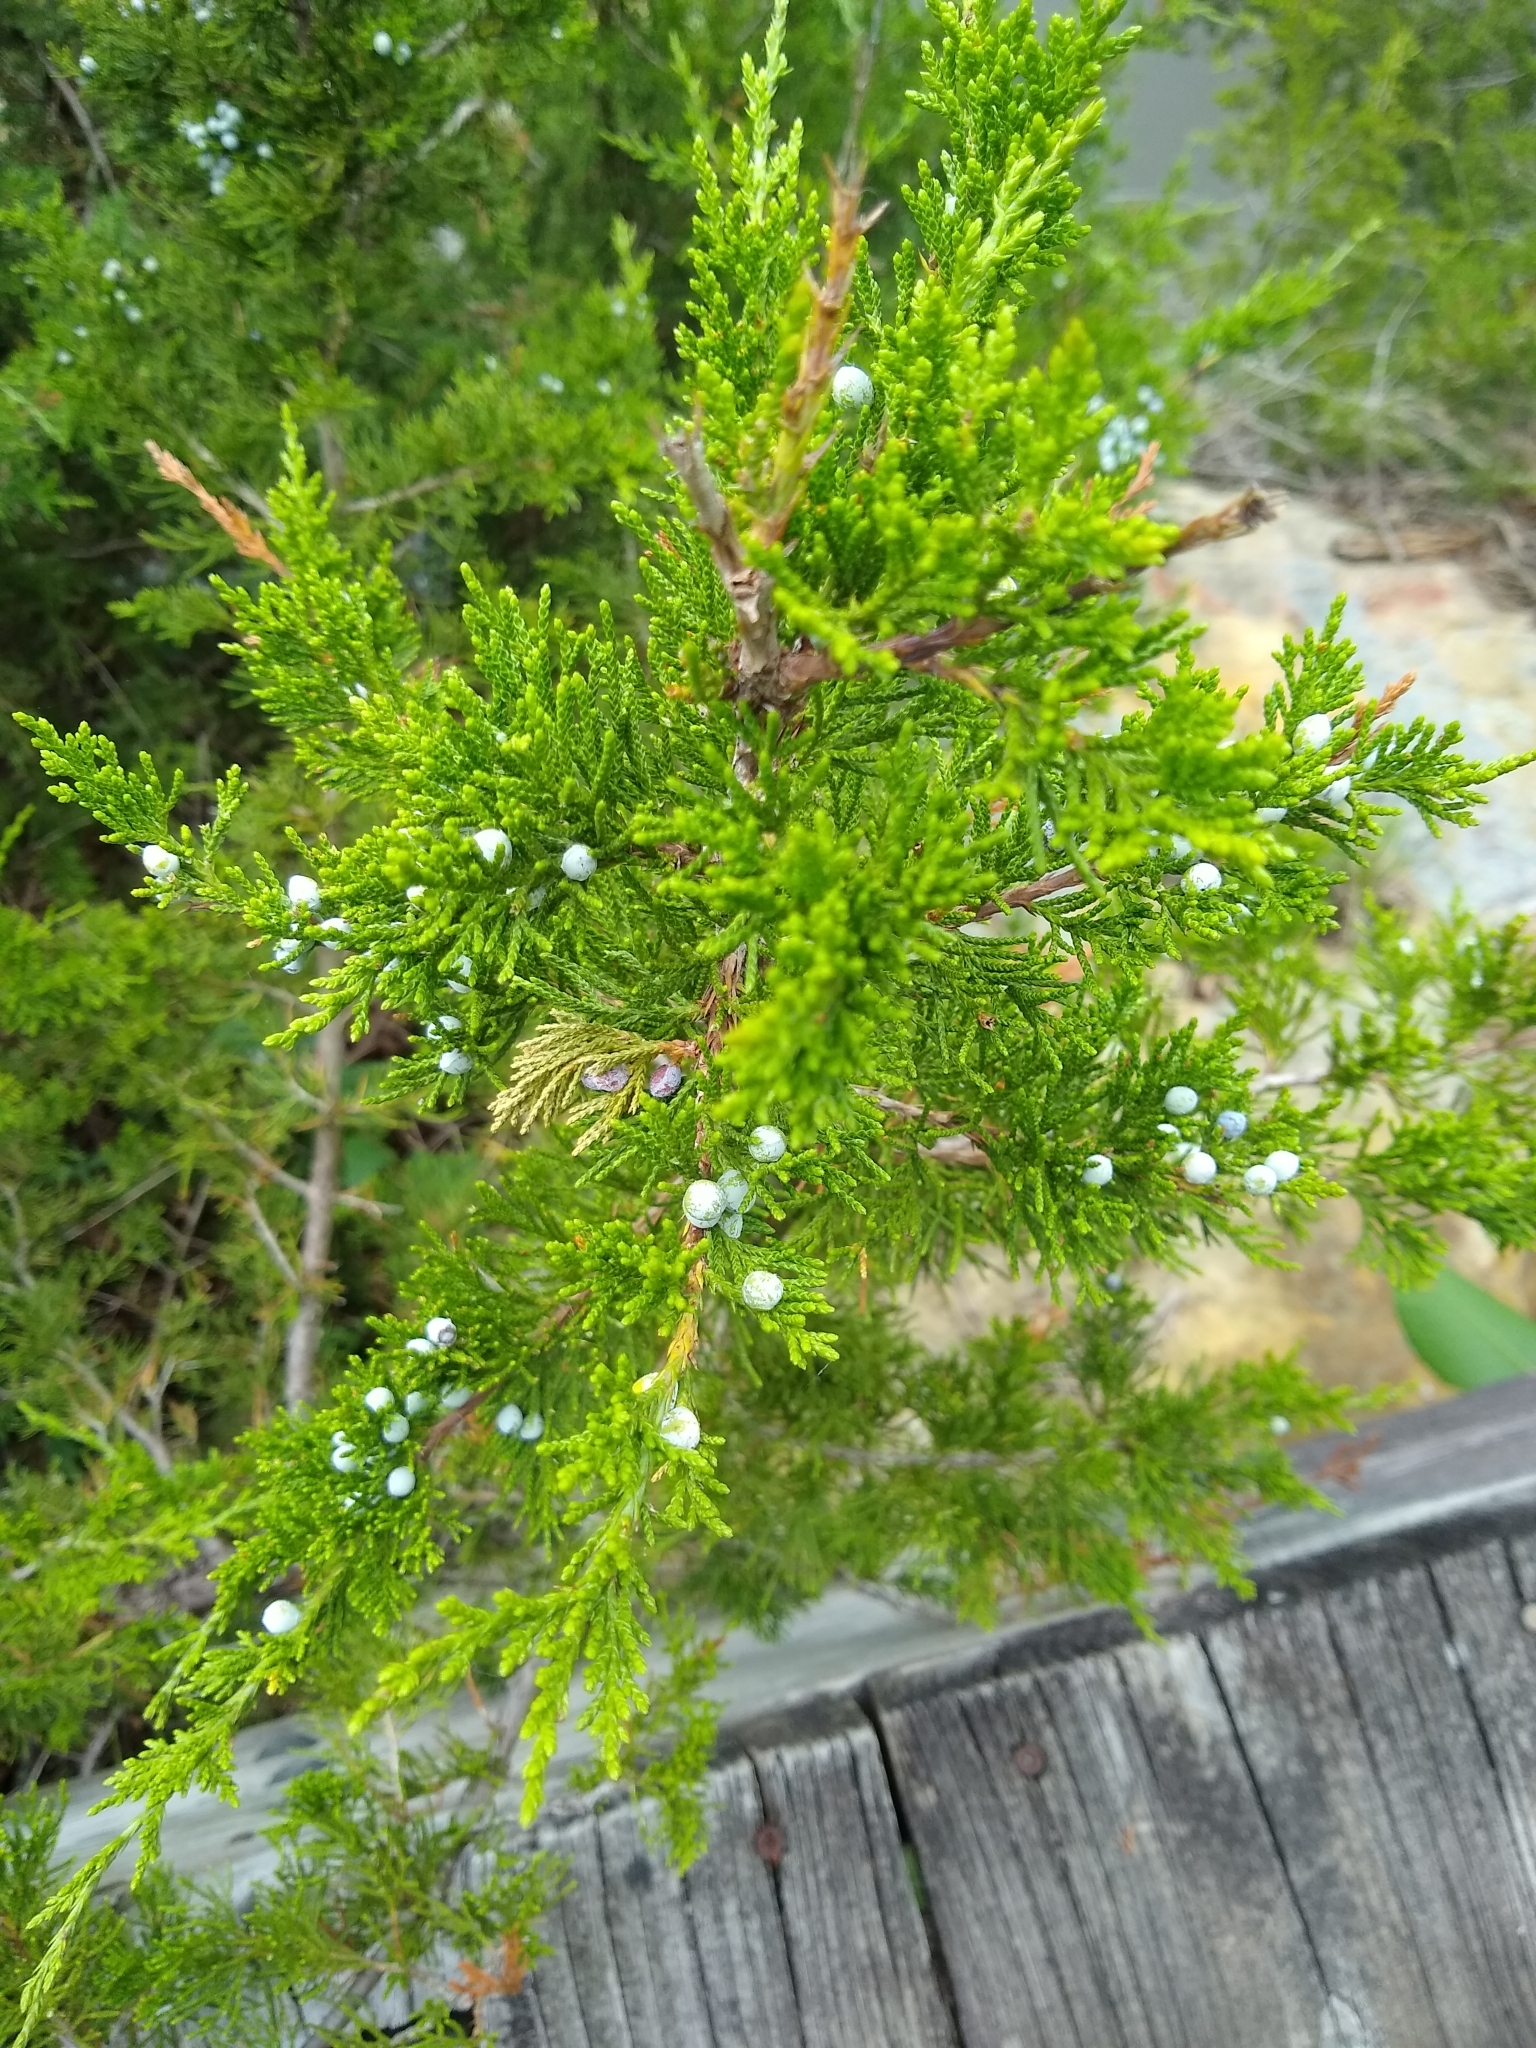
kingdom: Plantae
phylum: Tracheophyta
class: Pinopsida
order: Pinales
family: Cupressaceae
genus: Juniperus
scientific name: Juniperus virginiana
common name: Red juniper
